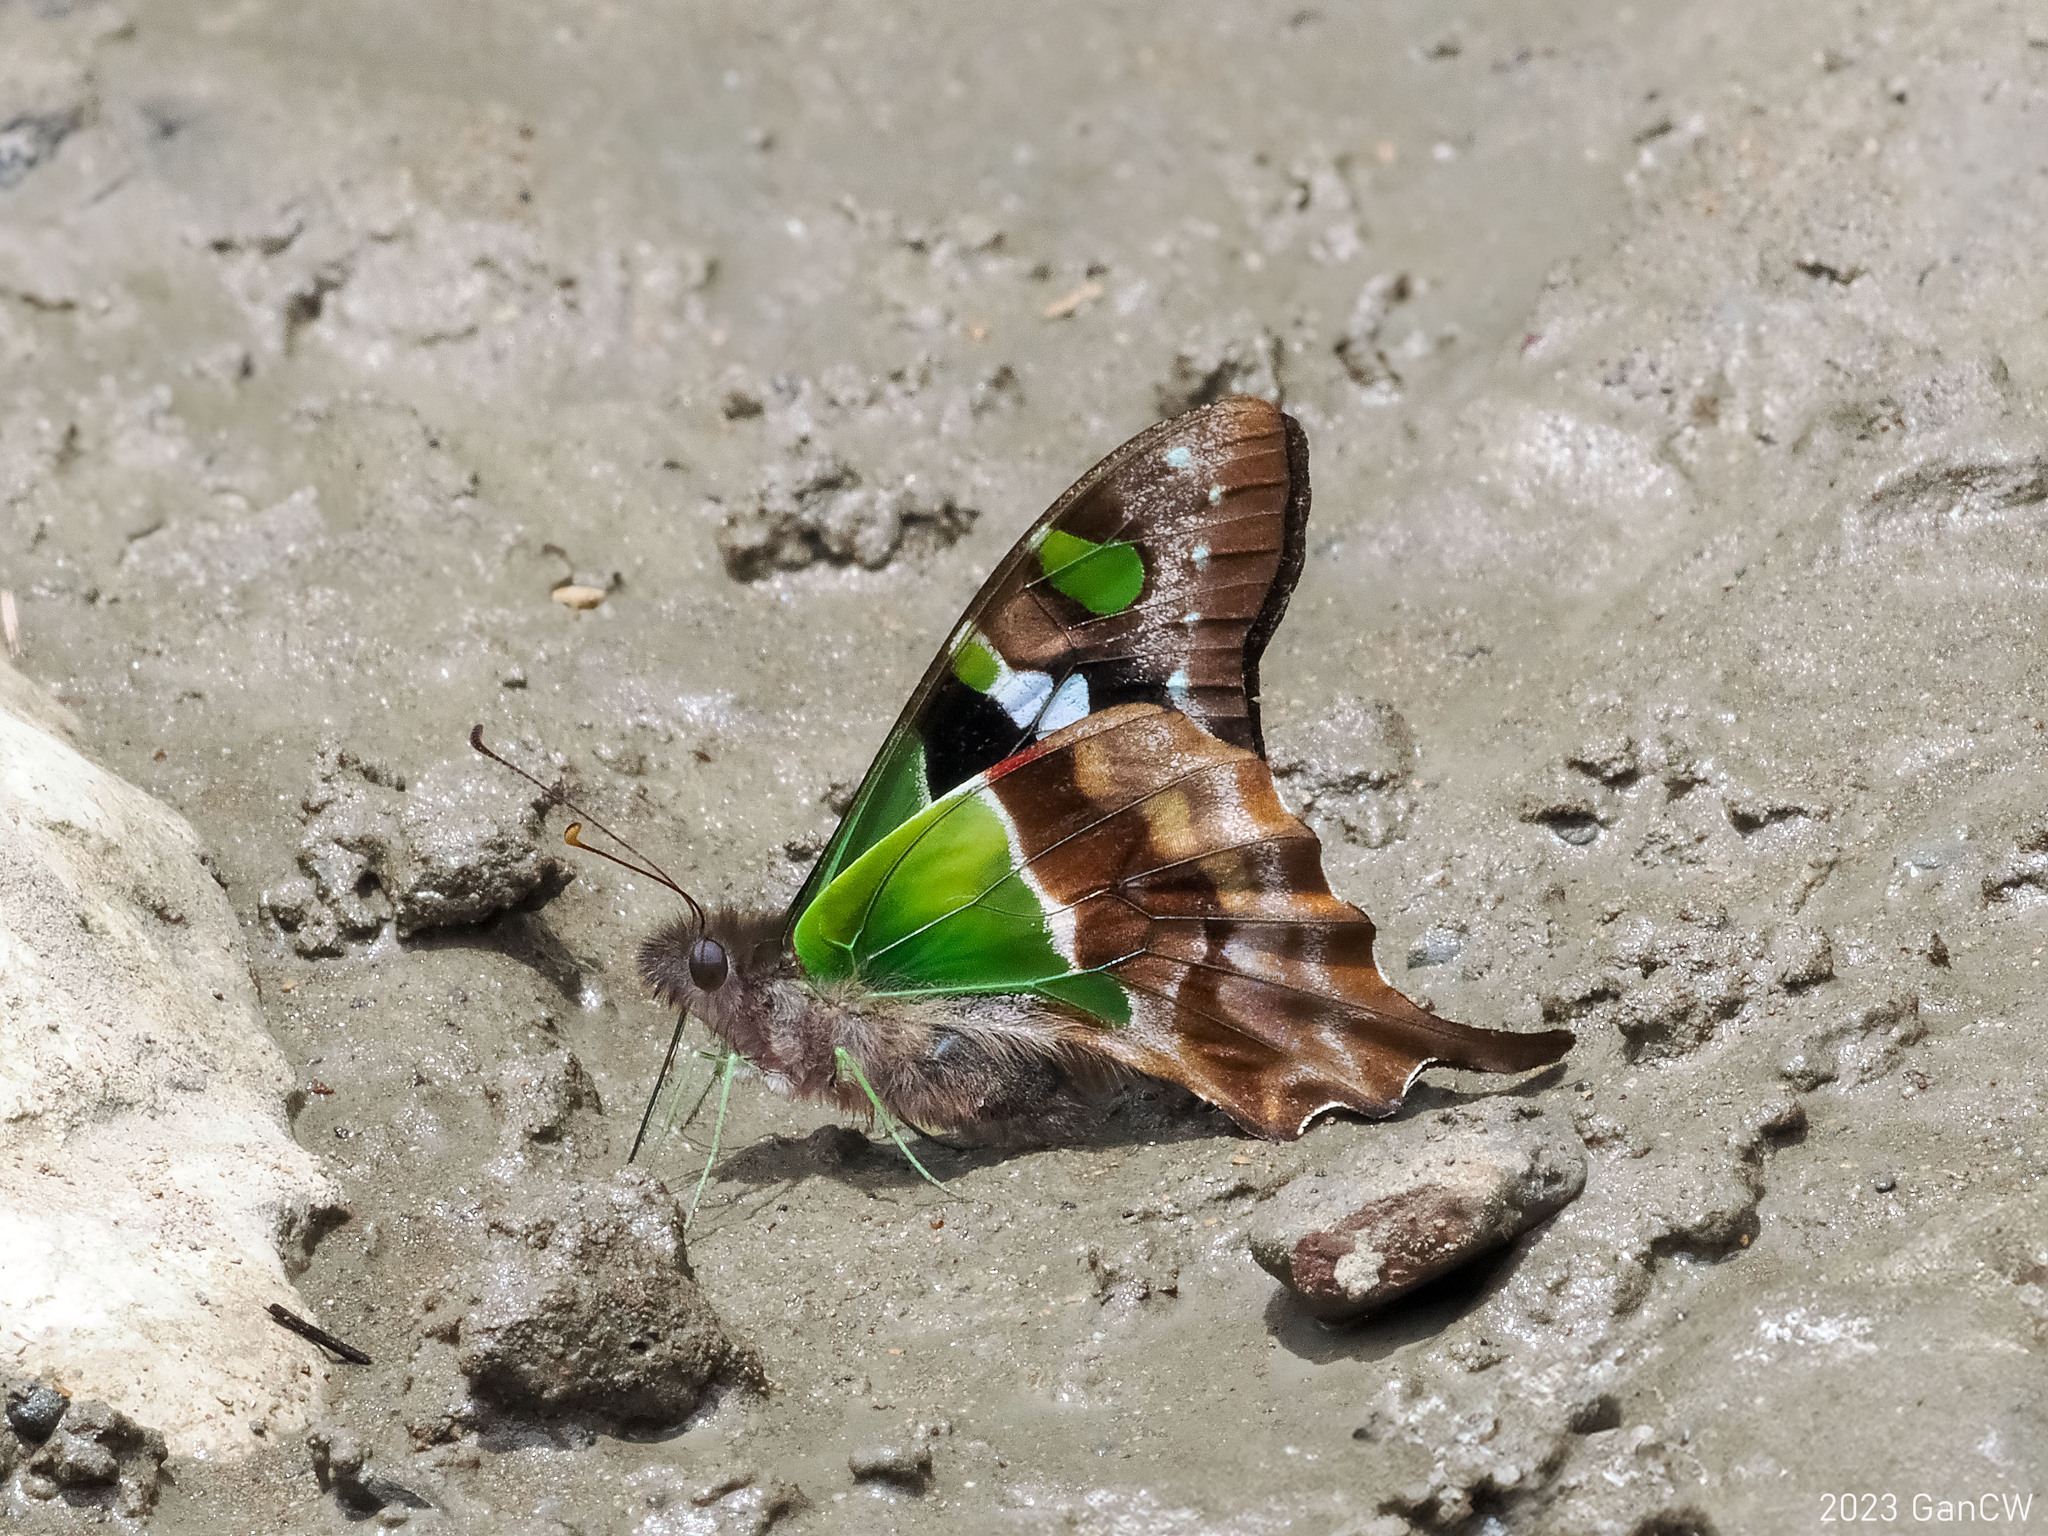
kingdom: Animalia
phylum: Arthropoda
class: Insecta
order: Lepidoptera
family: Papilionidae
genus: Graphium
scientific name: Graphium weiskei
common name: Purple spotted swallowtail
